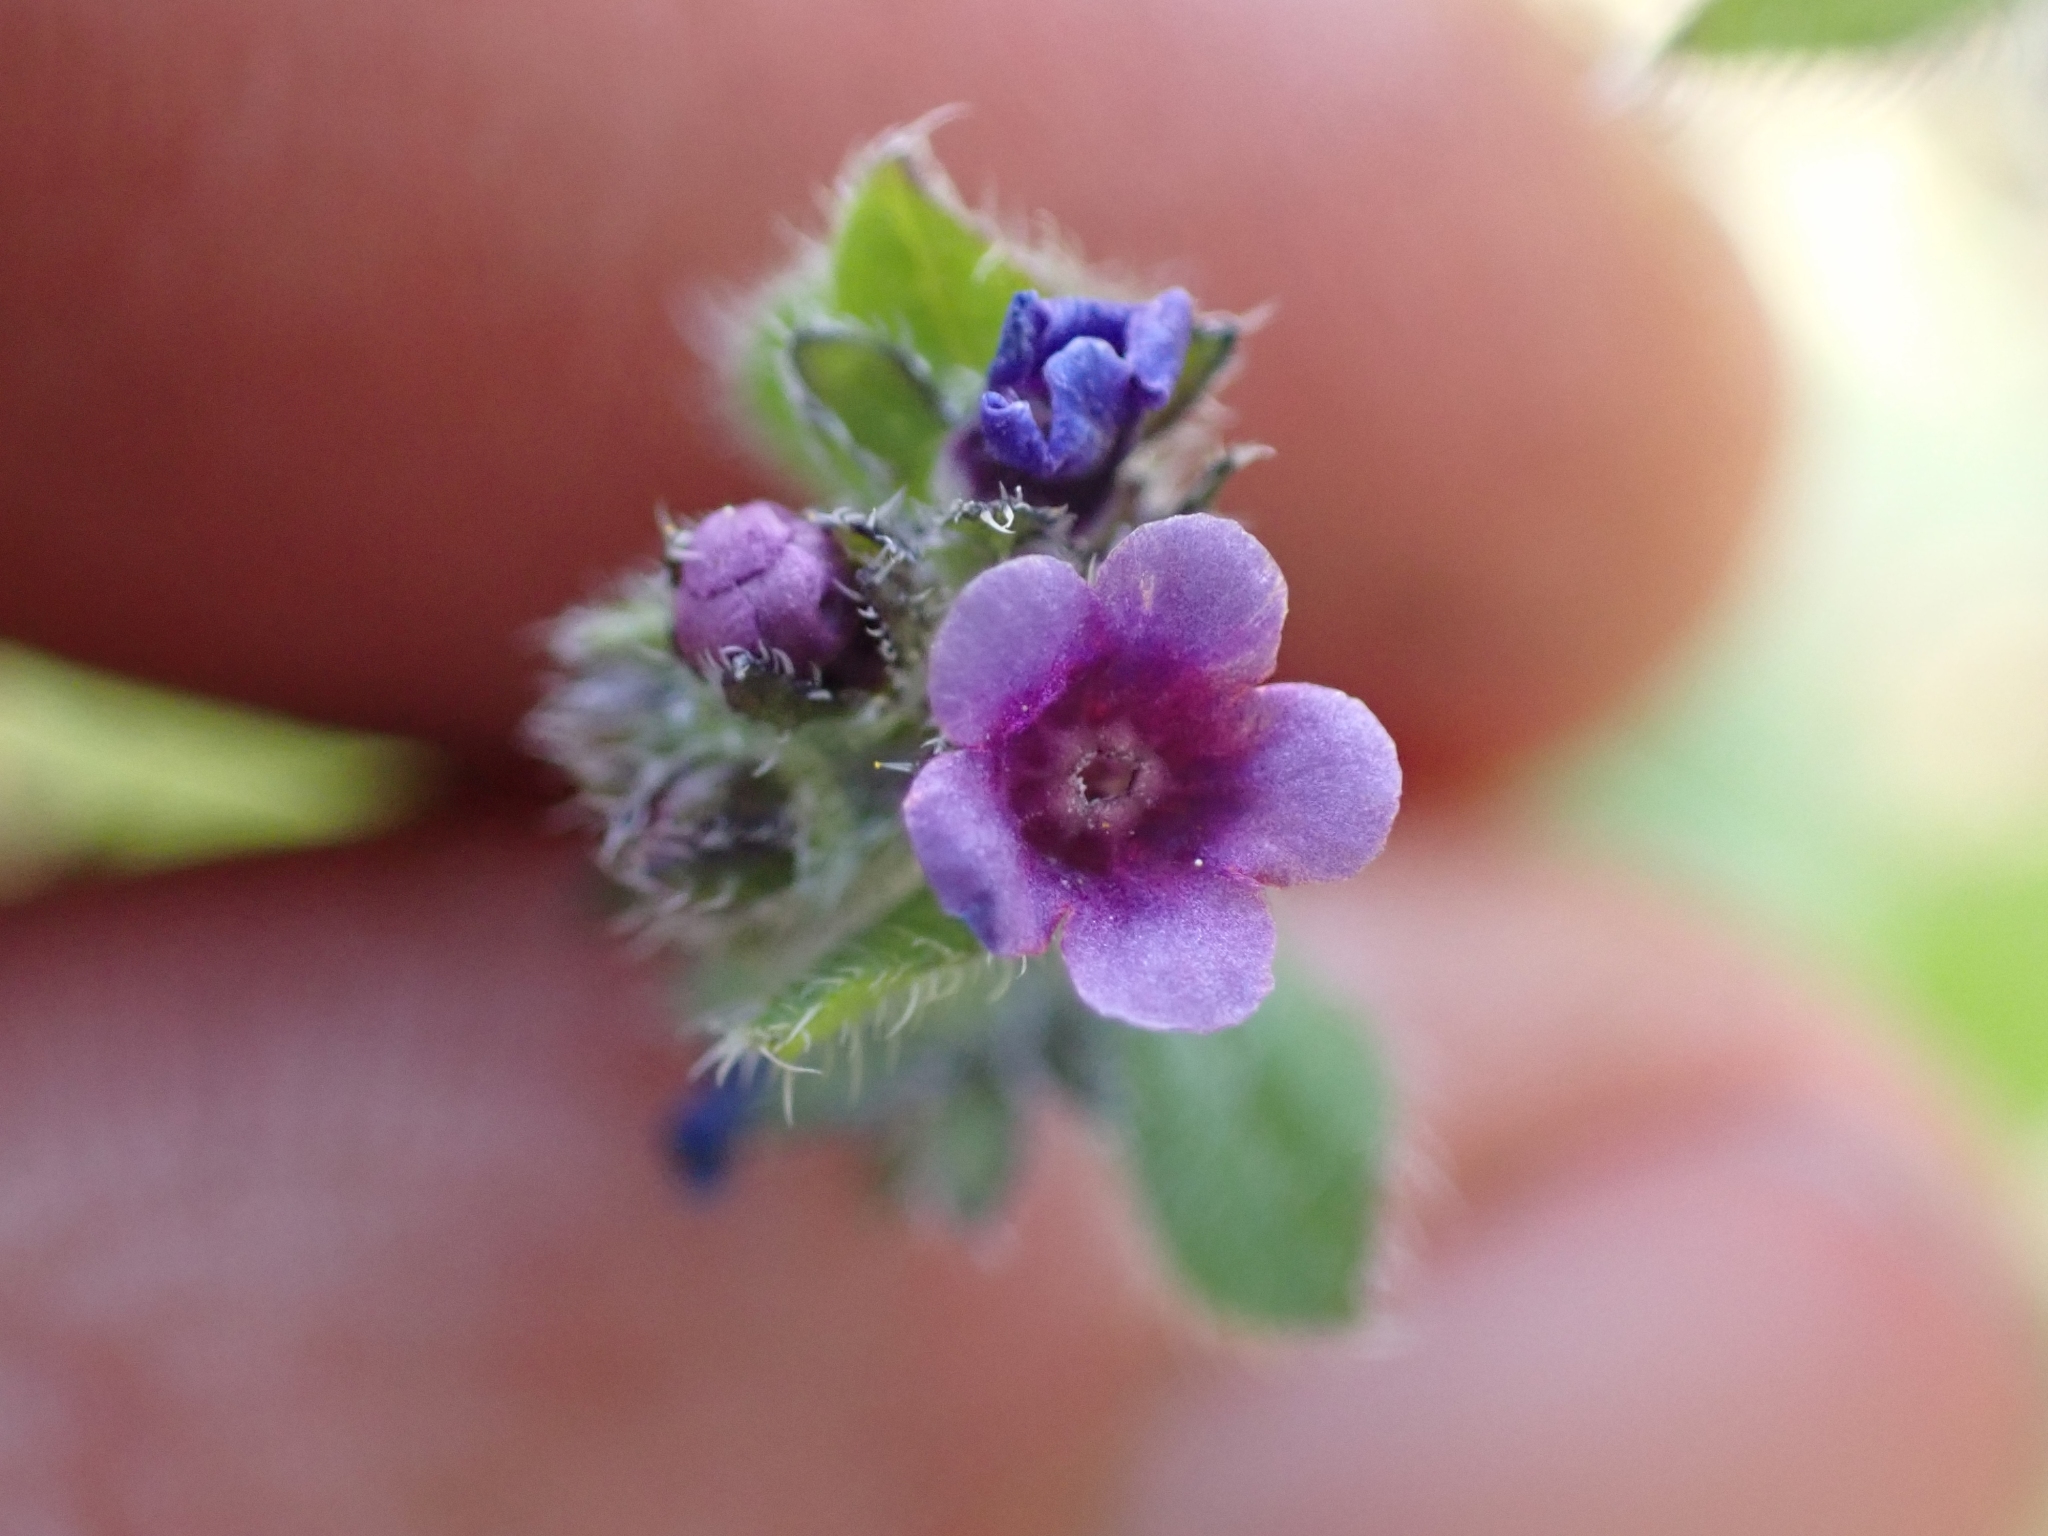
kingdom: Plantae
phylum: Tracheophyta
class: Magnoliopsida
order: Boraginales
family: Boraginaceae
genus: Asperugo
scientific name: Asperugo procumbens
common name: Madwort
